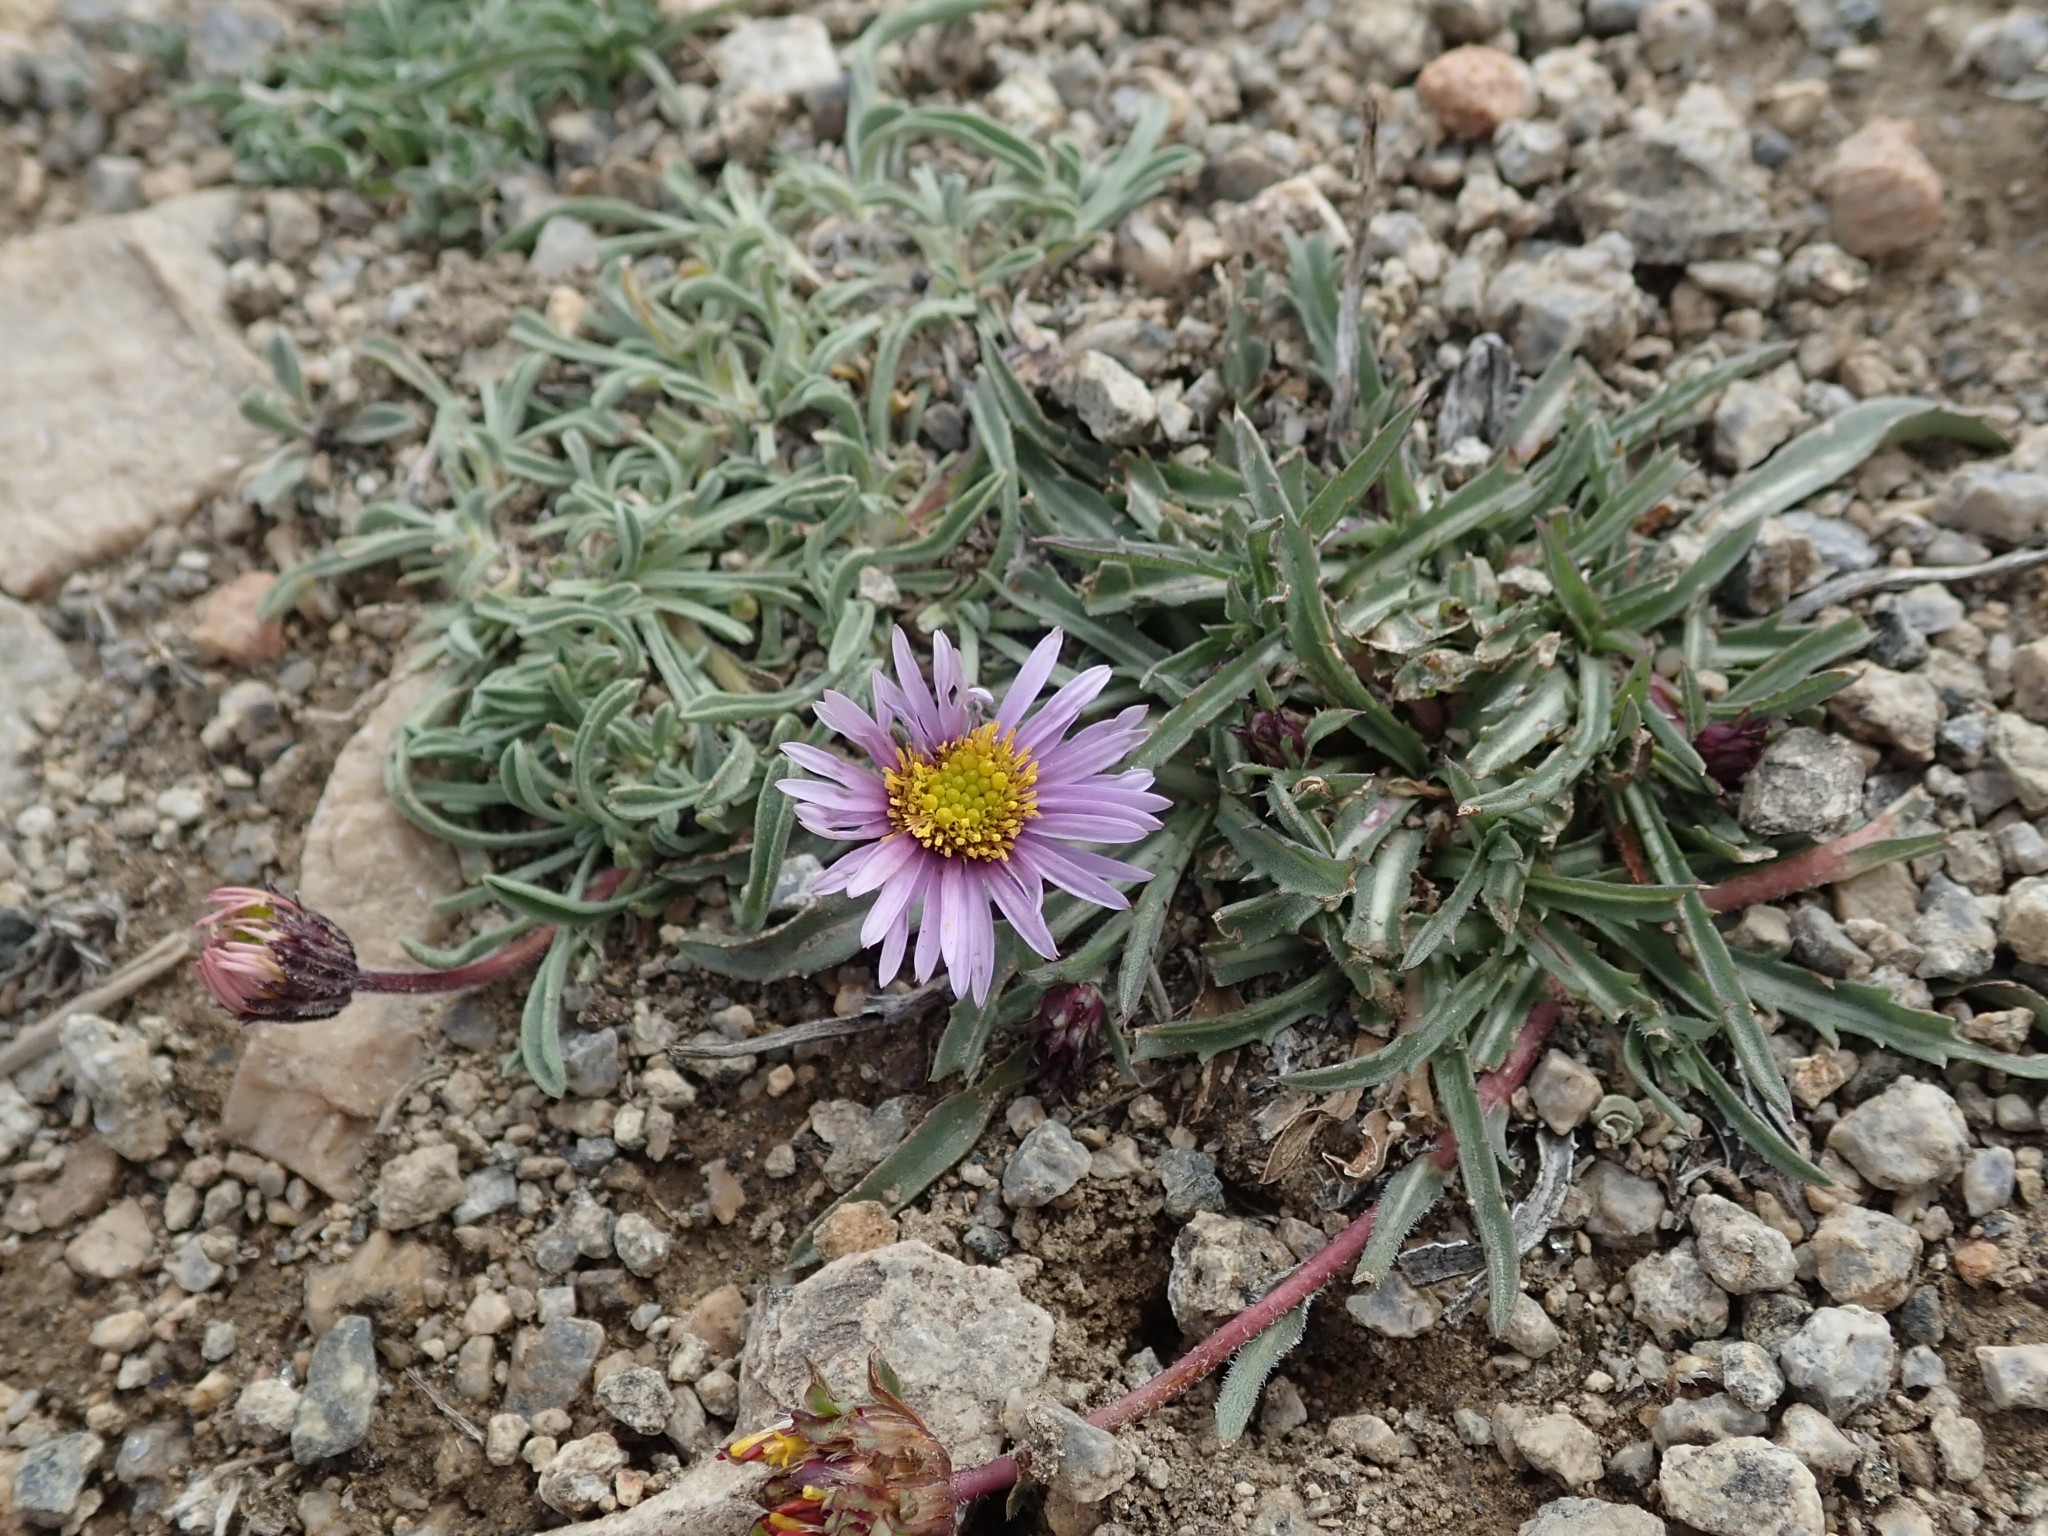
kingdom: Plantae
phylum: Tracheophyta
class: Magnoliopsida
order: Asterales
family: Asteraceae
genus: Erigeron
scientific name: Erigeron pygmaeus
